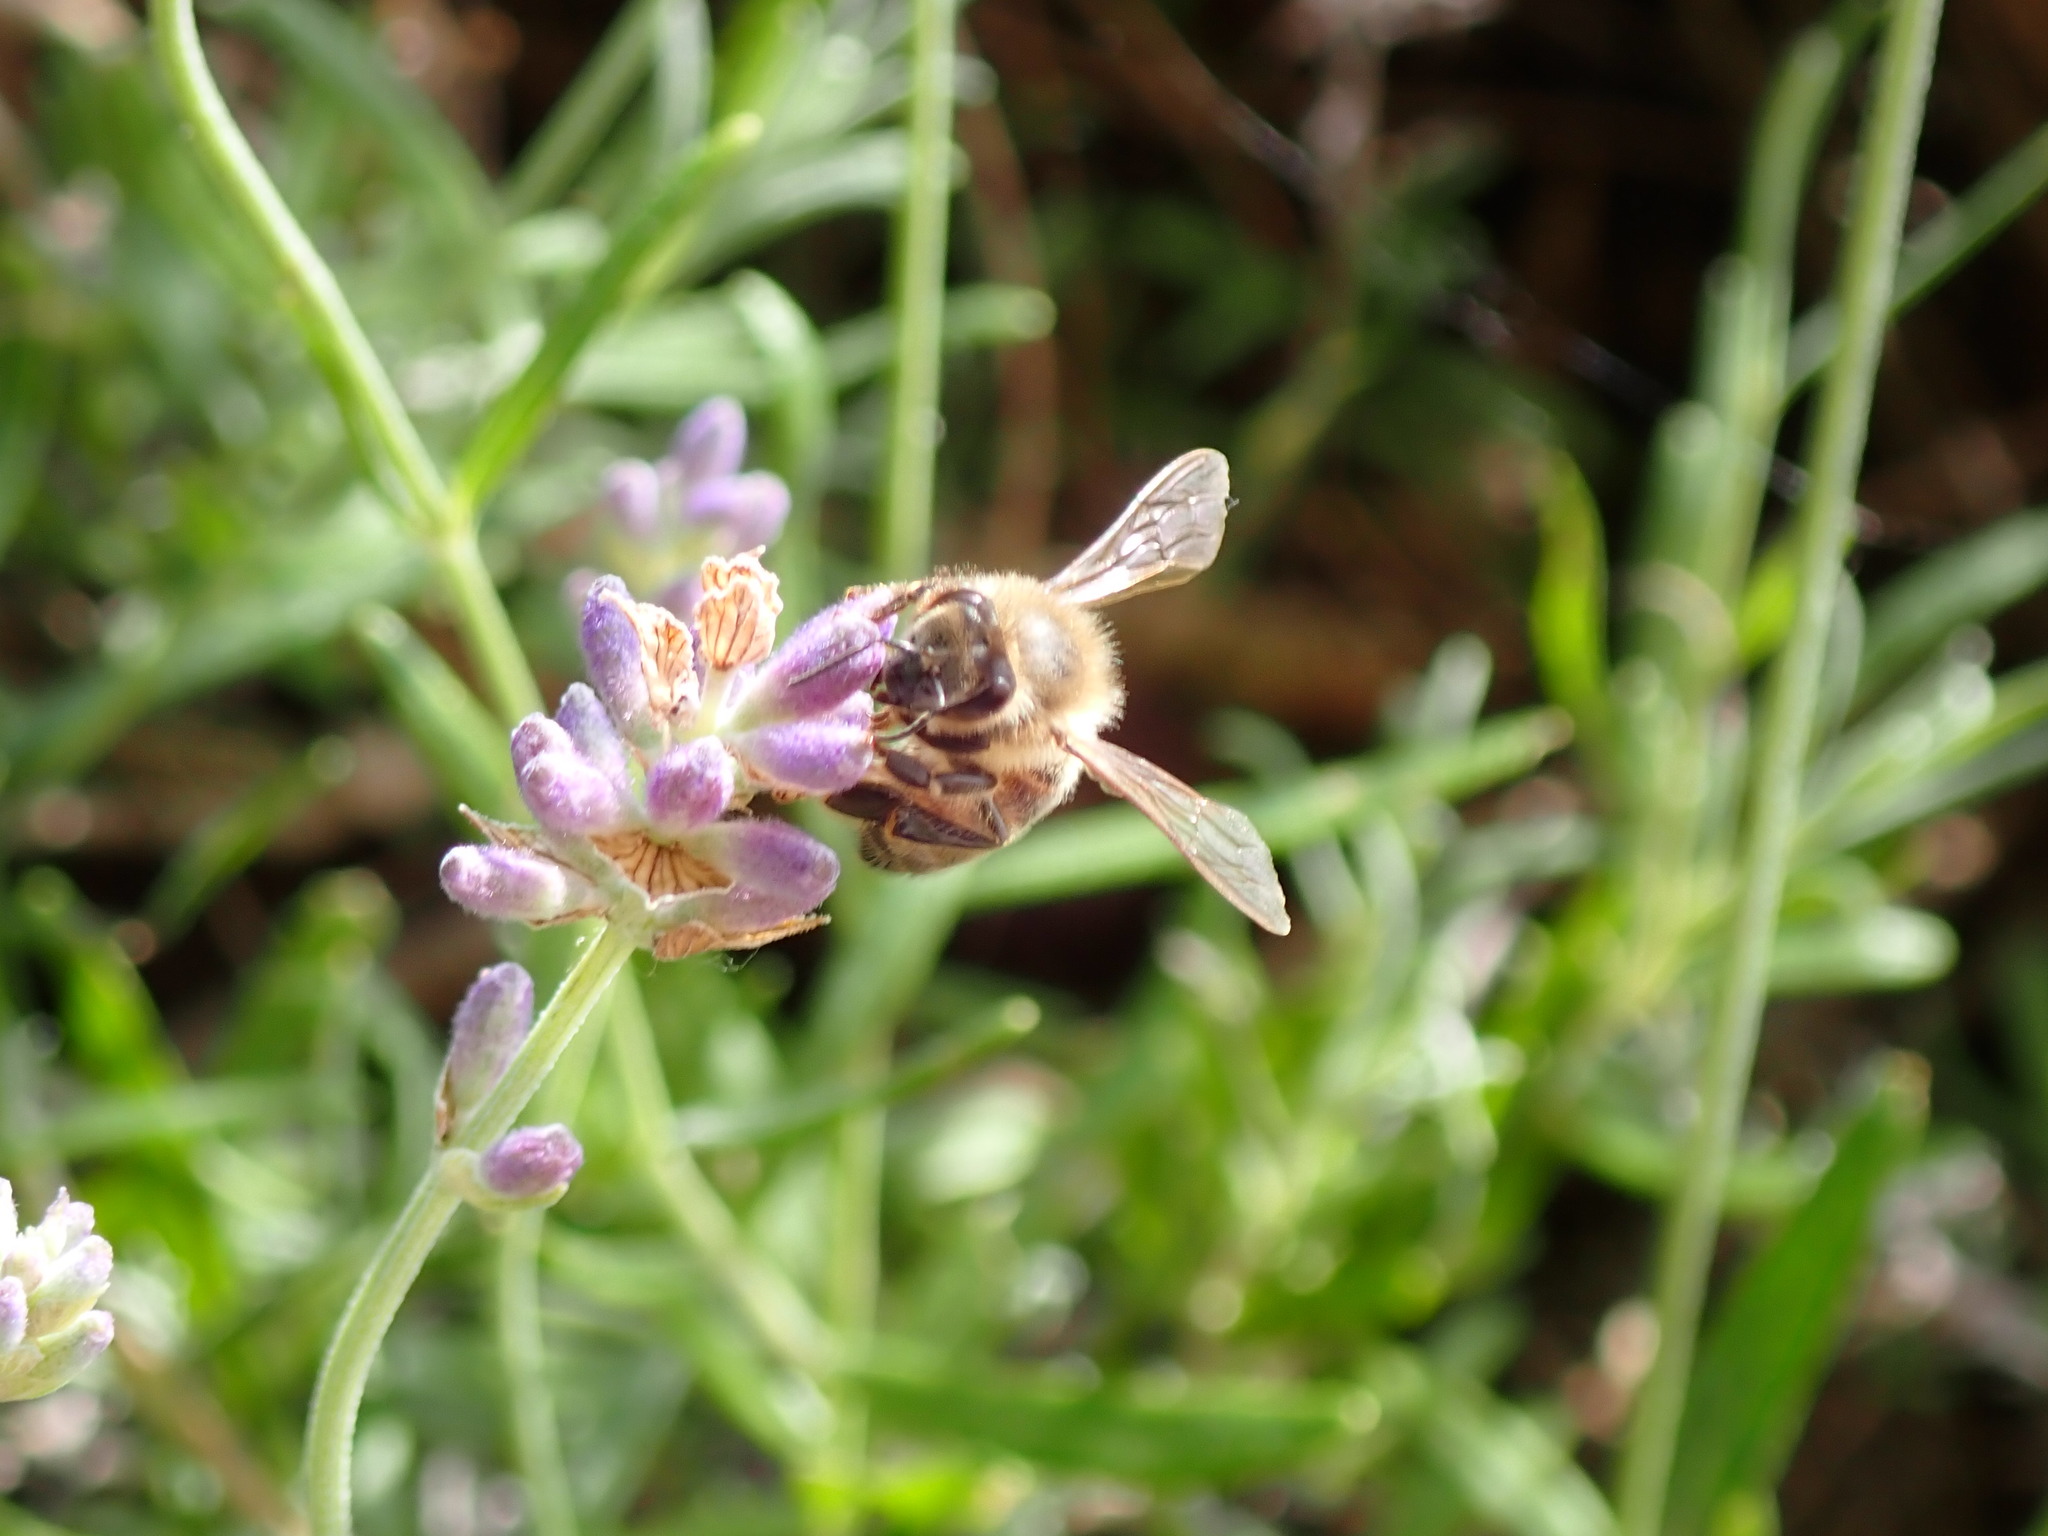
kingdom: Animalia
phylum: Arthropoda
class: Insecta
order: Hymenoptera
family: Apidae
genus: Apis
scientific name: Apis mellifera
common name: Honey bee
